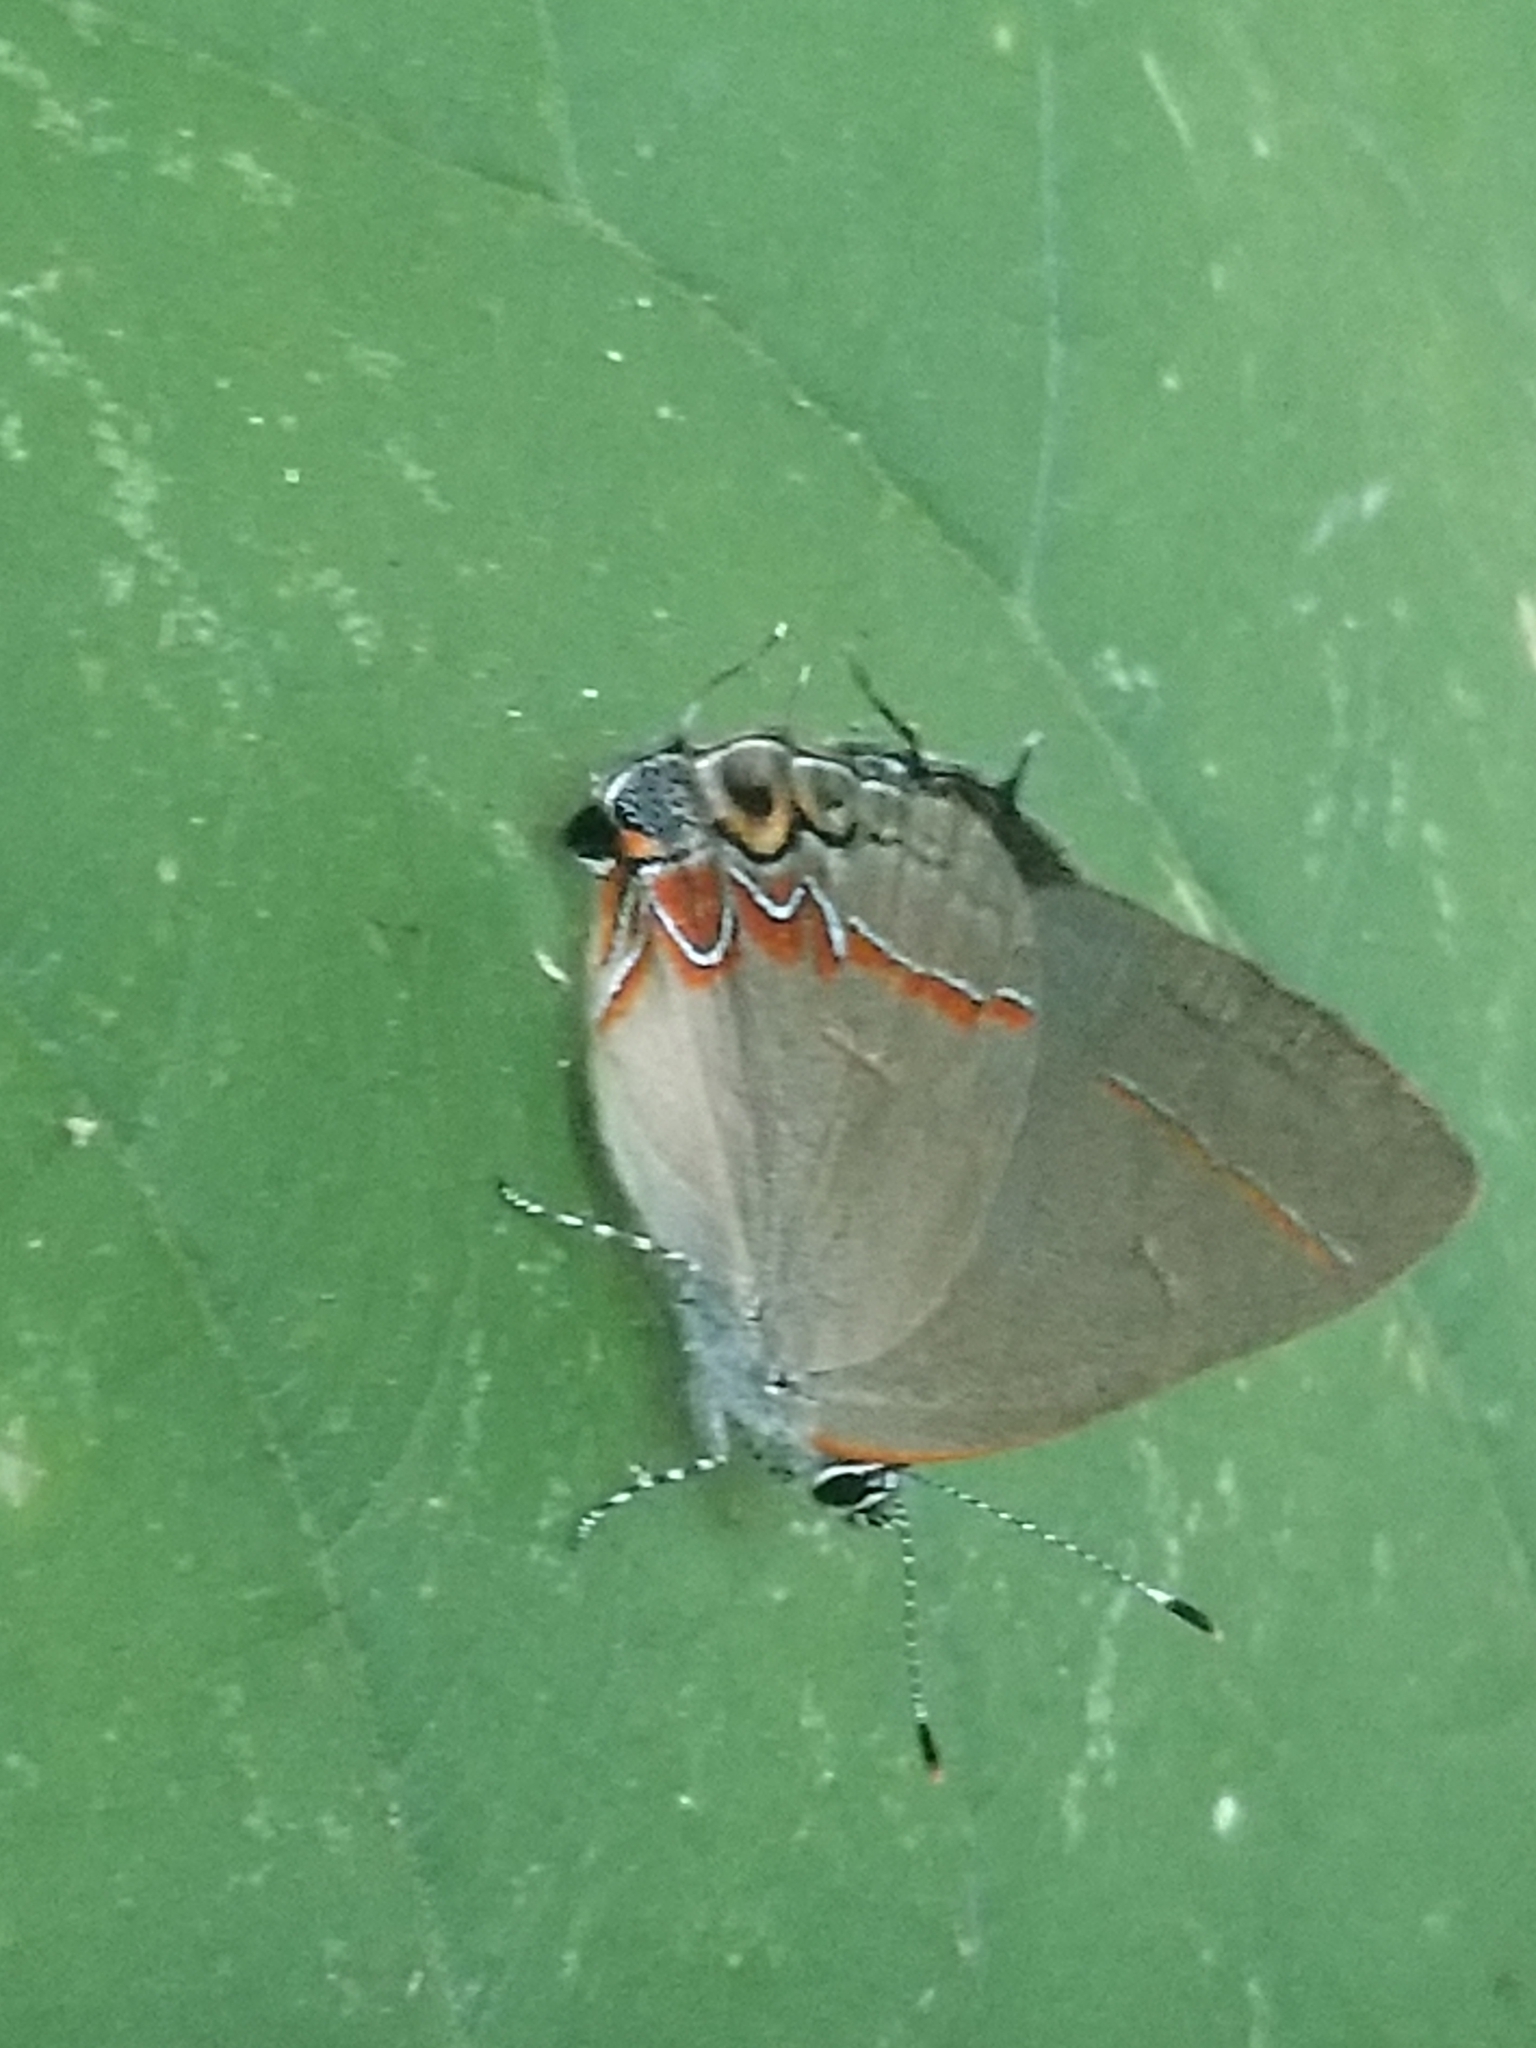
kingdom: Animalia
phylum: Arthropoda
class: Insecta
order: Lepidoptera
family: Lycaenidae
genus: Calycopis
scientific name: Calycopis isobeon
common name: Dusky-blue groundstreak
